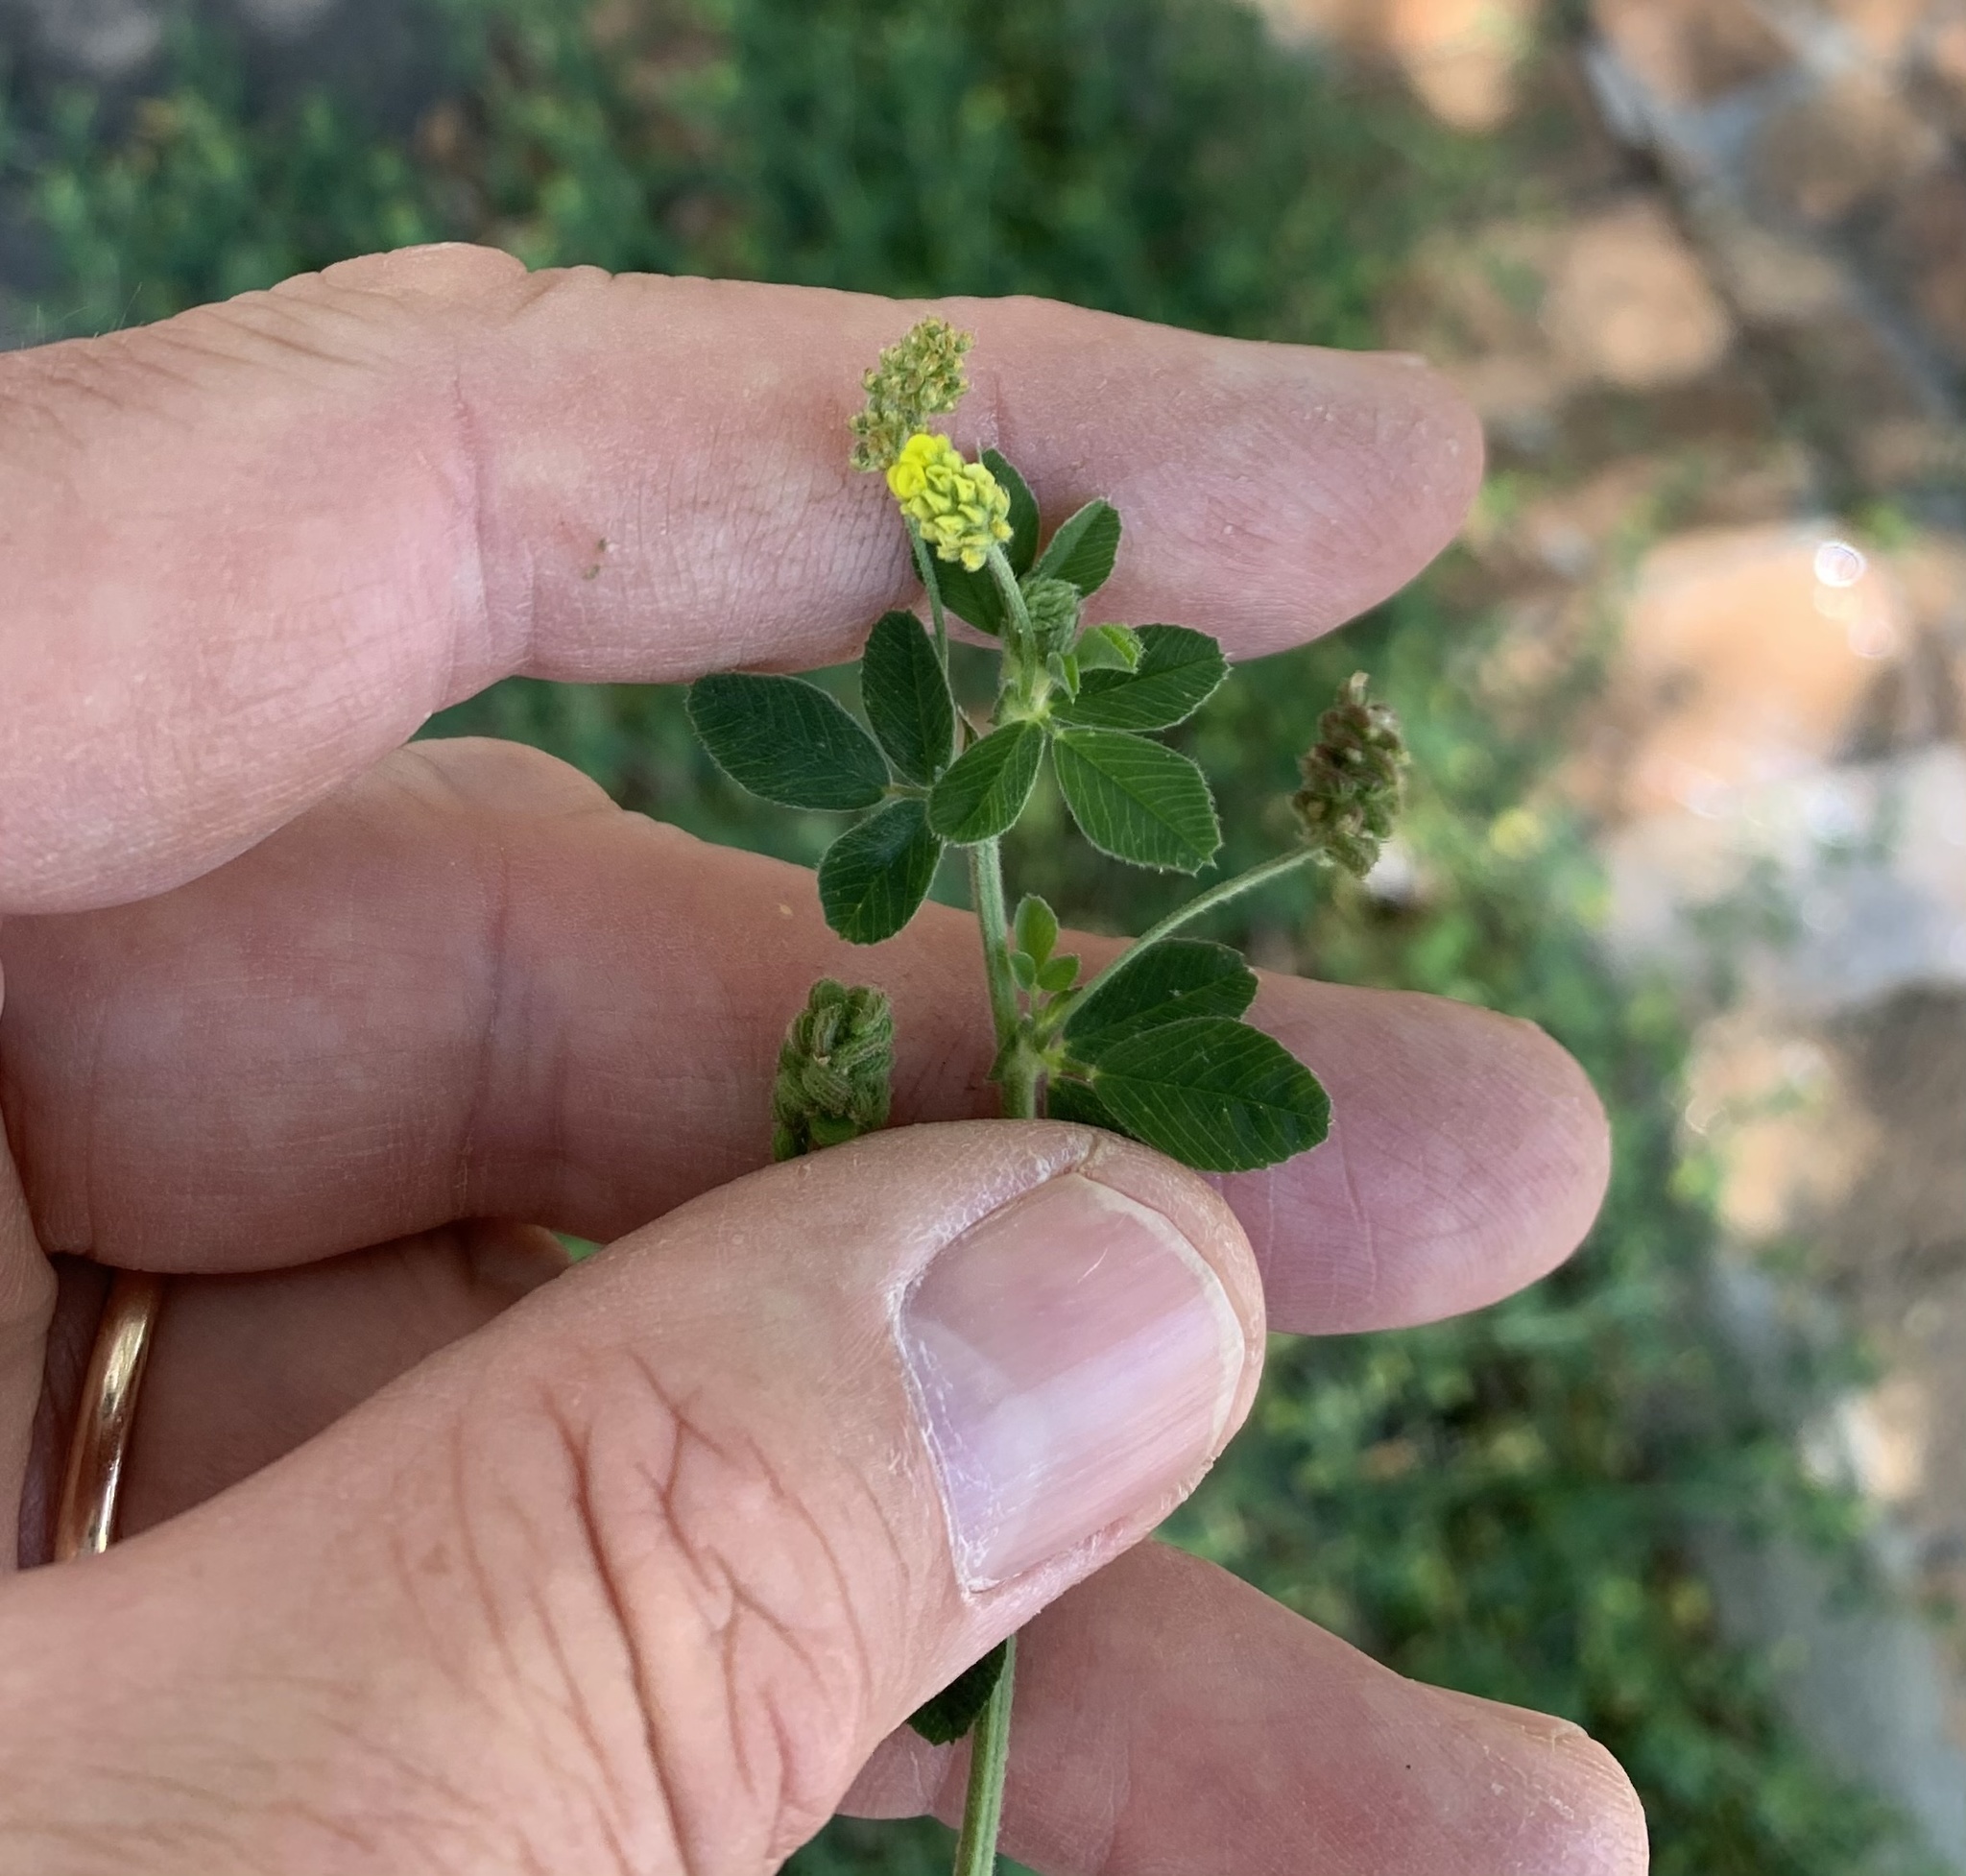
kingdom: Plantae
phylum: Tracheophyta
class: Magnoliopsida
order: Fabales
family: Fabaceae
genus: Medicago
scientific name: Medicago lupulina
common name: Black medick
